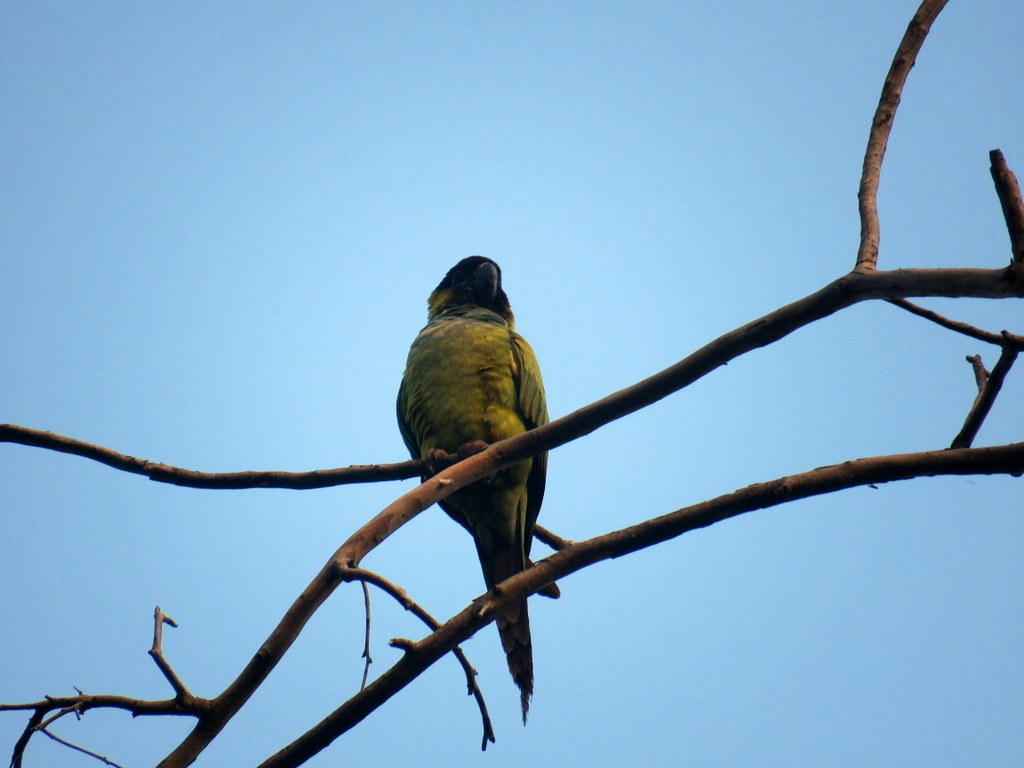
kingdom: Animalia
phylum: Chordata
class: Aves
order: Psittaciformes
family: Psittacidae
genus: Nandayus
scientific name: Nandayus nenday
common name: Nanday parakeet
